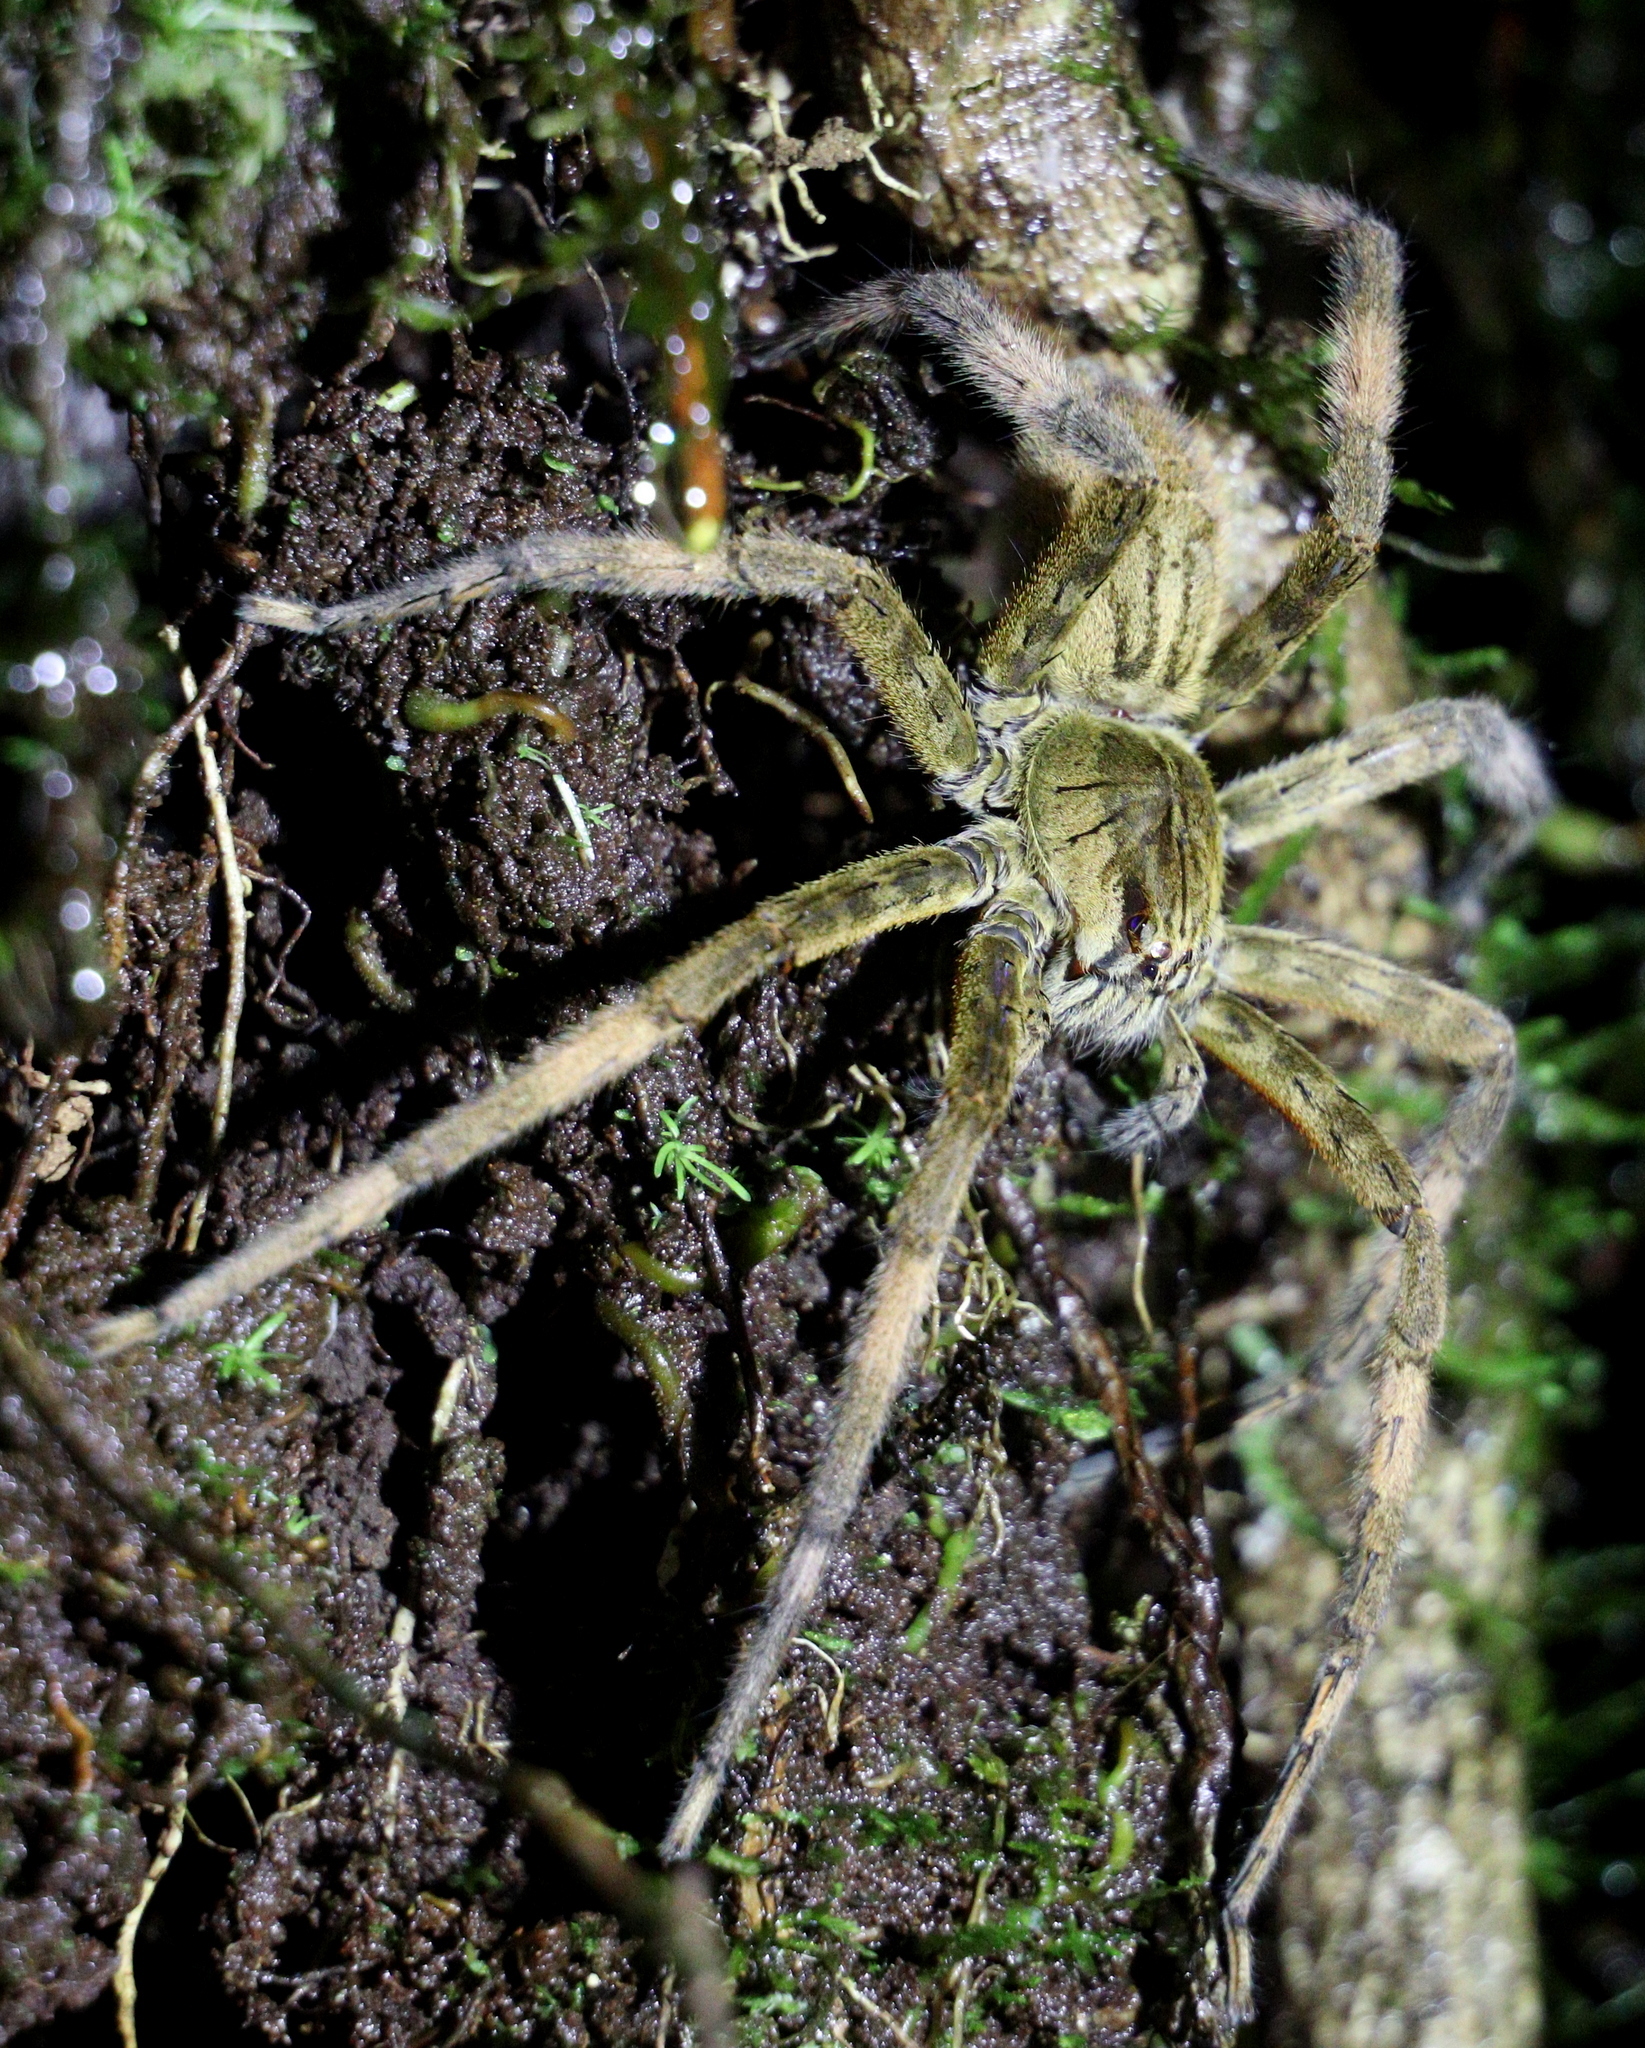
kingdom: Animalia
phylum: Arthropoda
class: Arachnida
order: Araneae
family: Trechaleidae
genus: Cupiennius
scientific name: Cupiennius coccineus
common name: Wandering spiders
